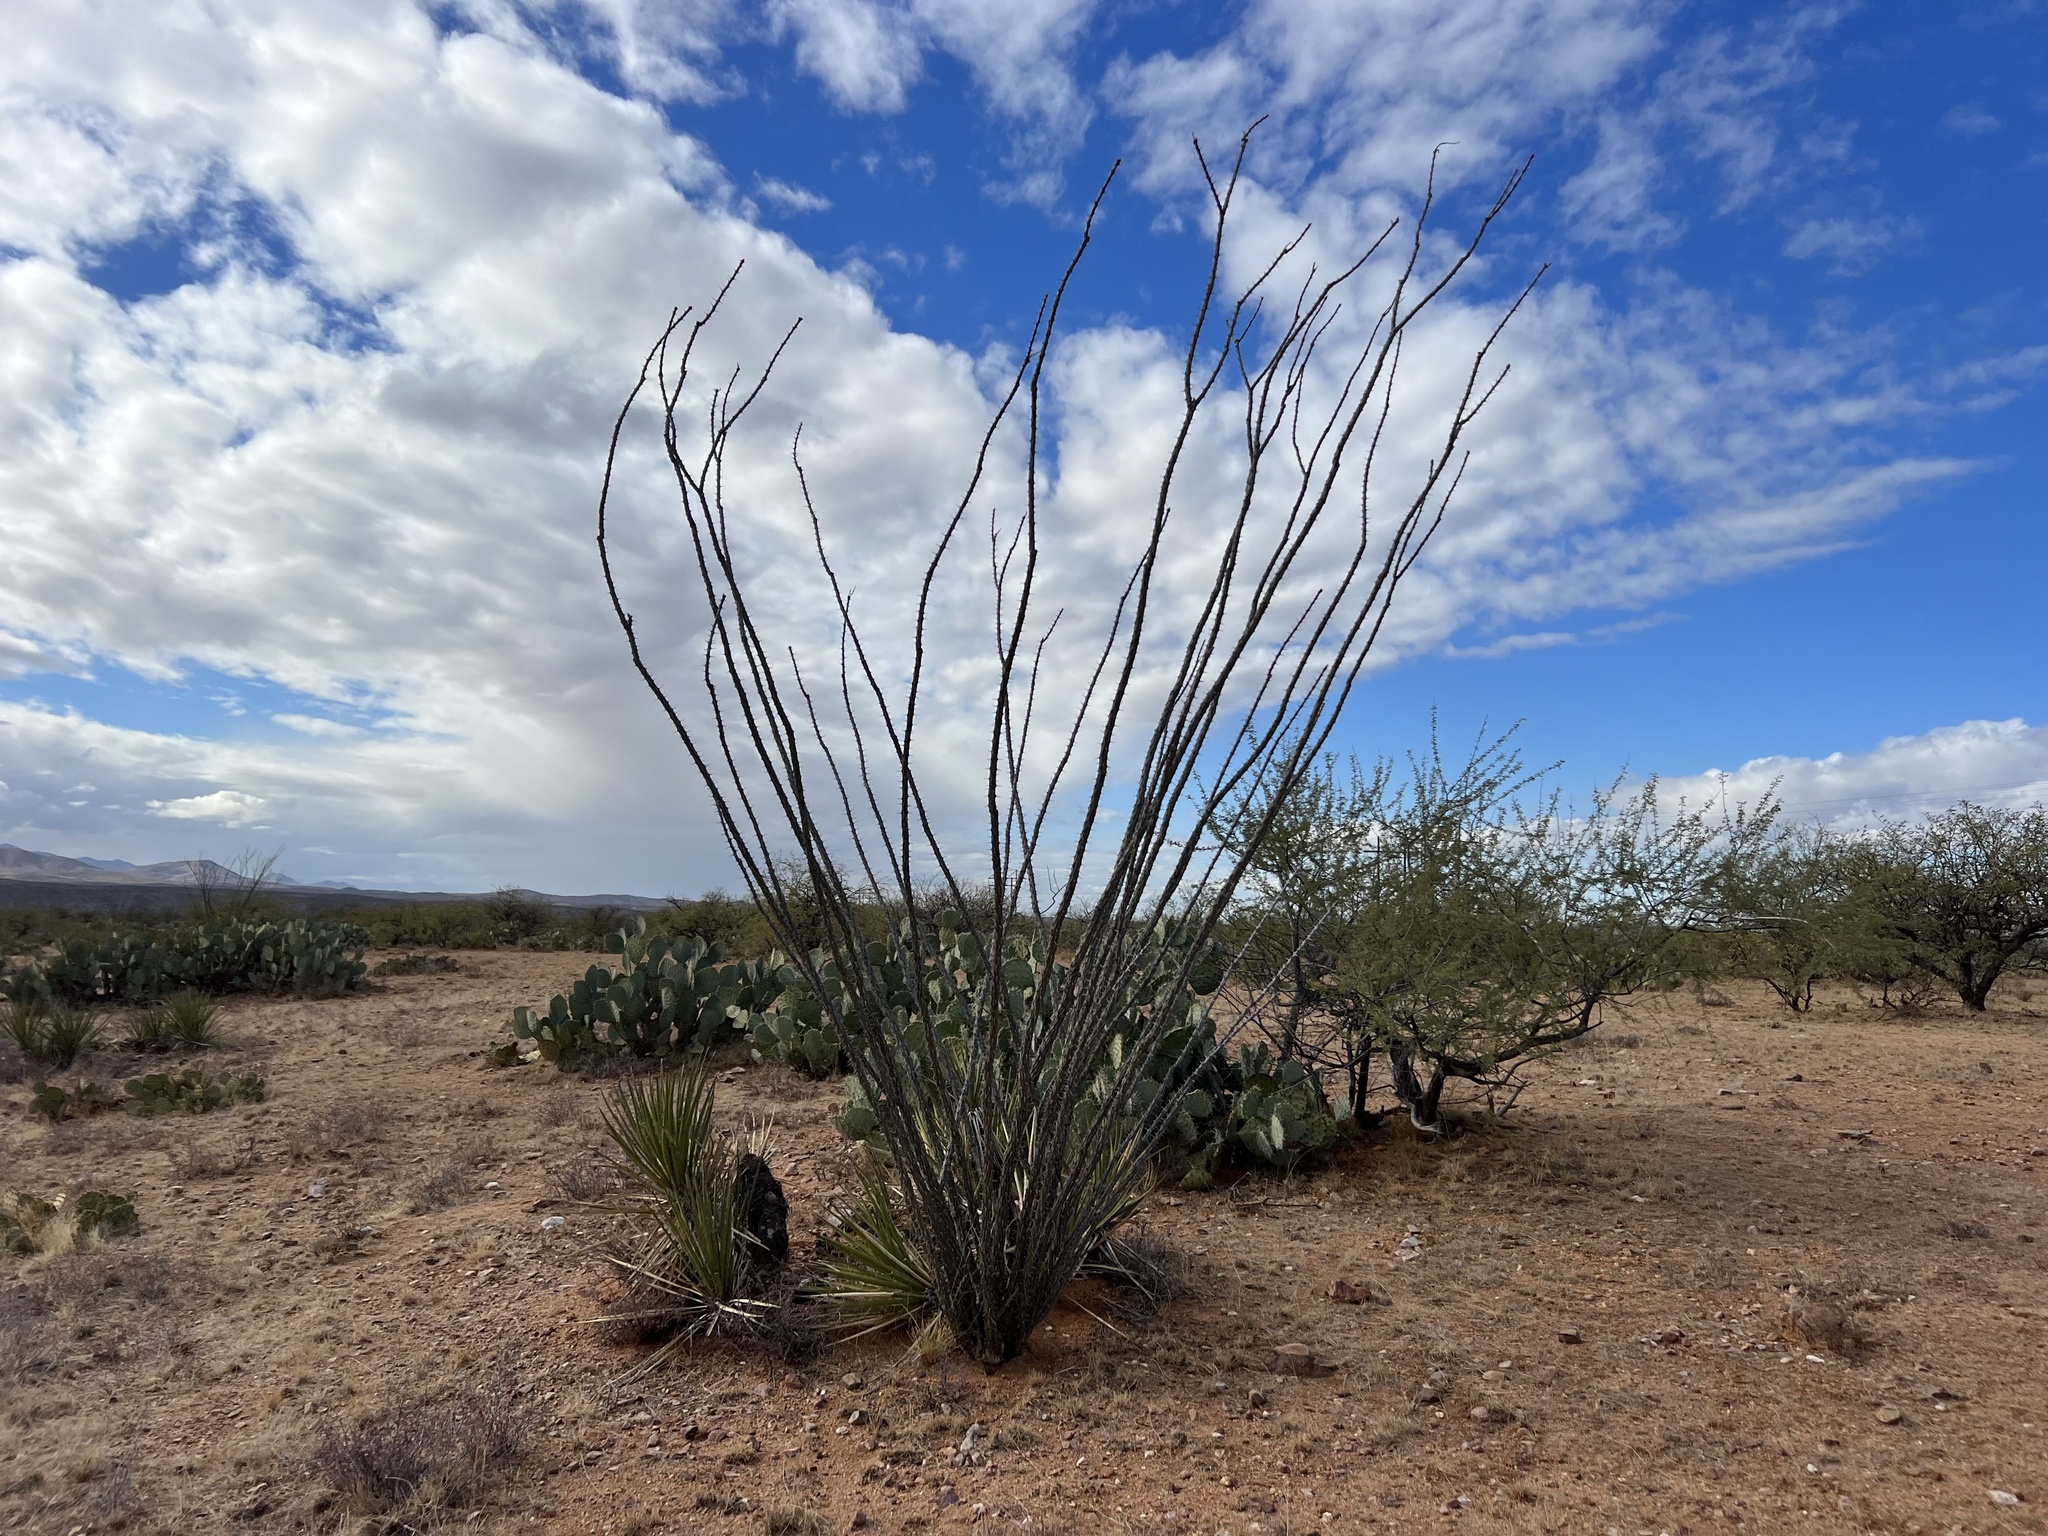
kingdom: Plantae
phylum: Tracheophyta
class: Magnoliopsida
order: Ericales
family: Fouquieriaceae
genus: Fouquieria
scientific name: Fouquieria splendens
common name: Vine-cactus
